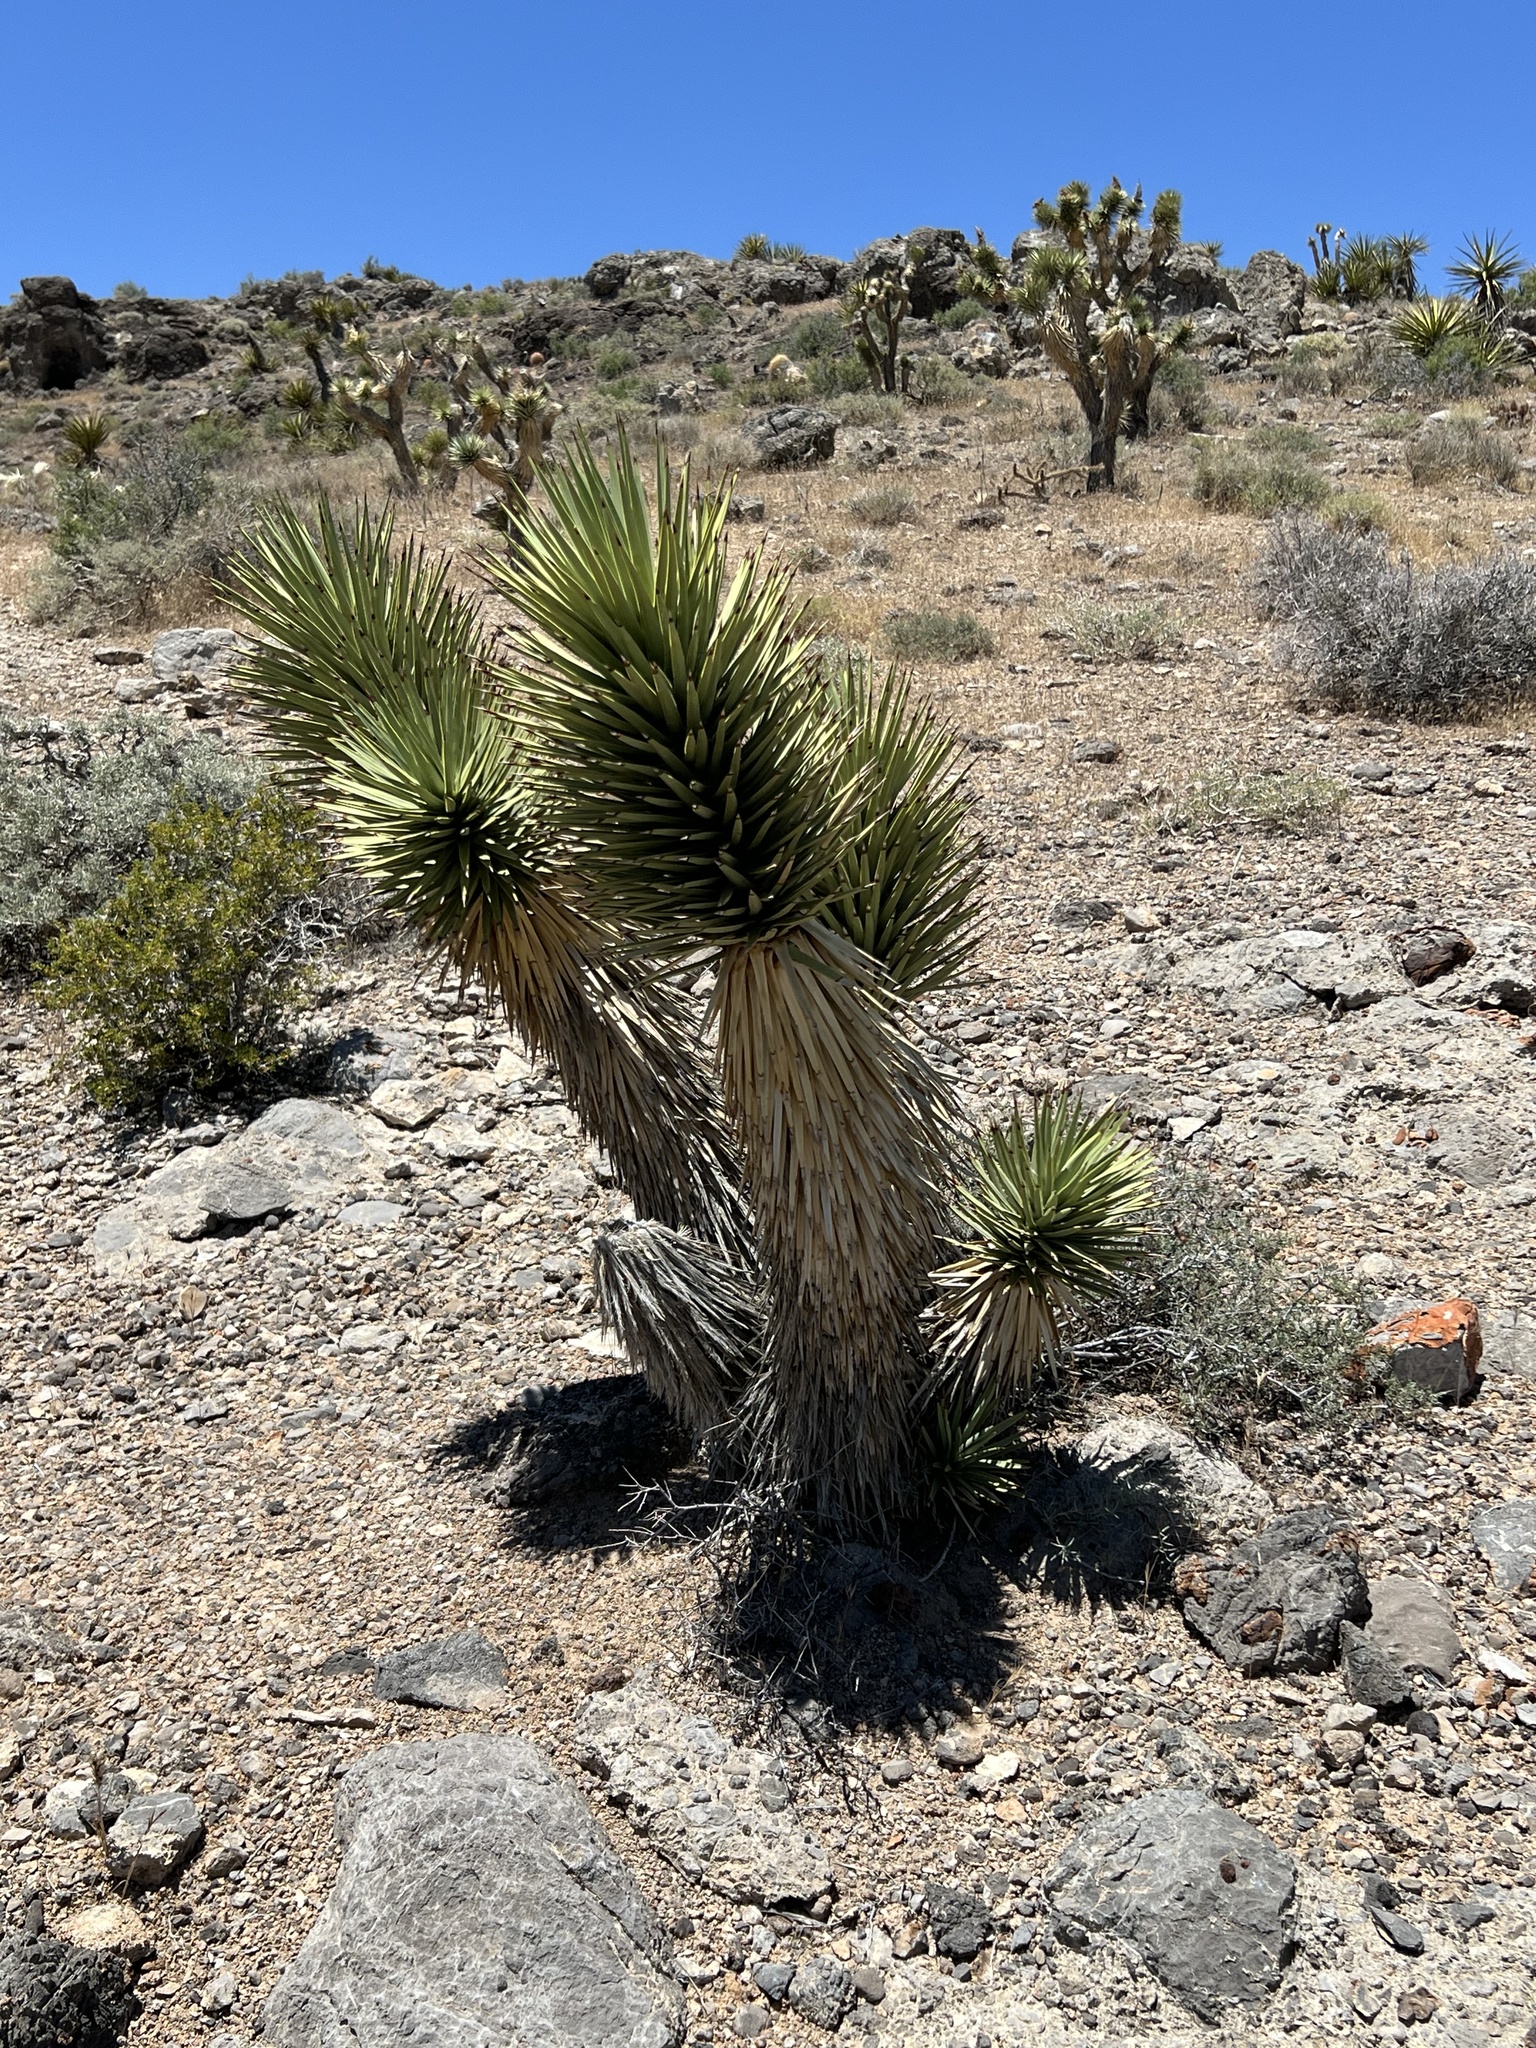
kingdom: Plantae
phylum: Tracheophyta
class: Liliopsida
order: Asparagales
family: Asparagaceae
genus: Yucca
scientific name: Yucca brevifolia
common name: Joshua tree
